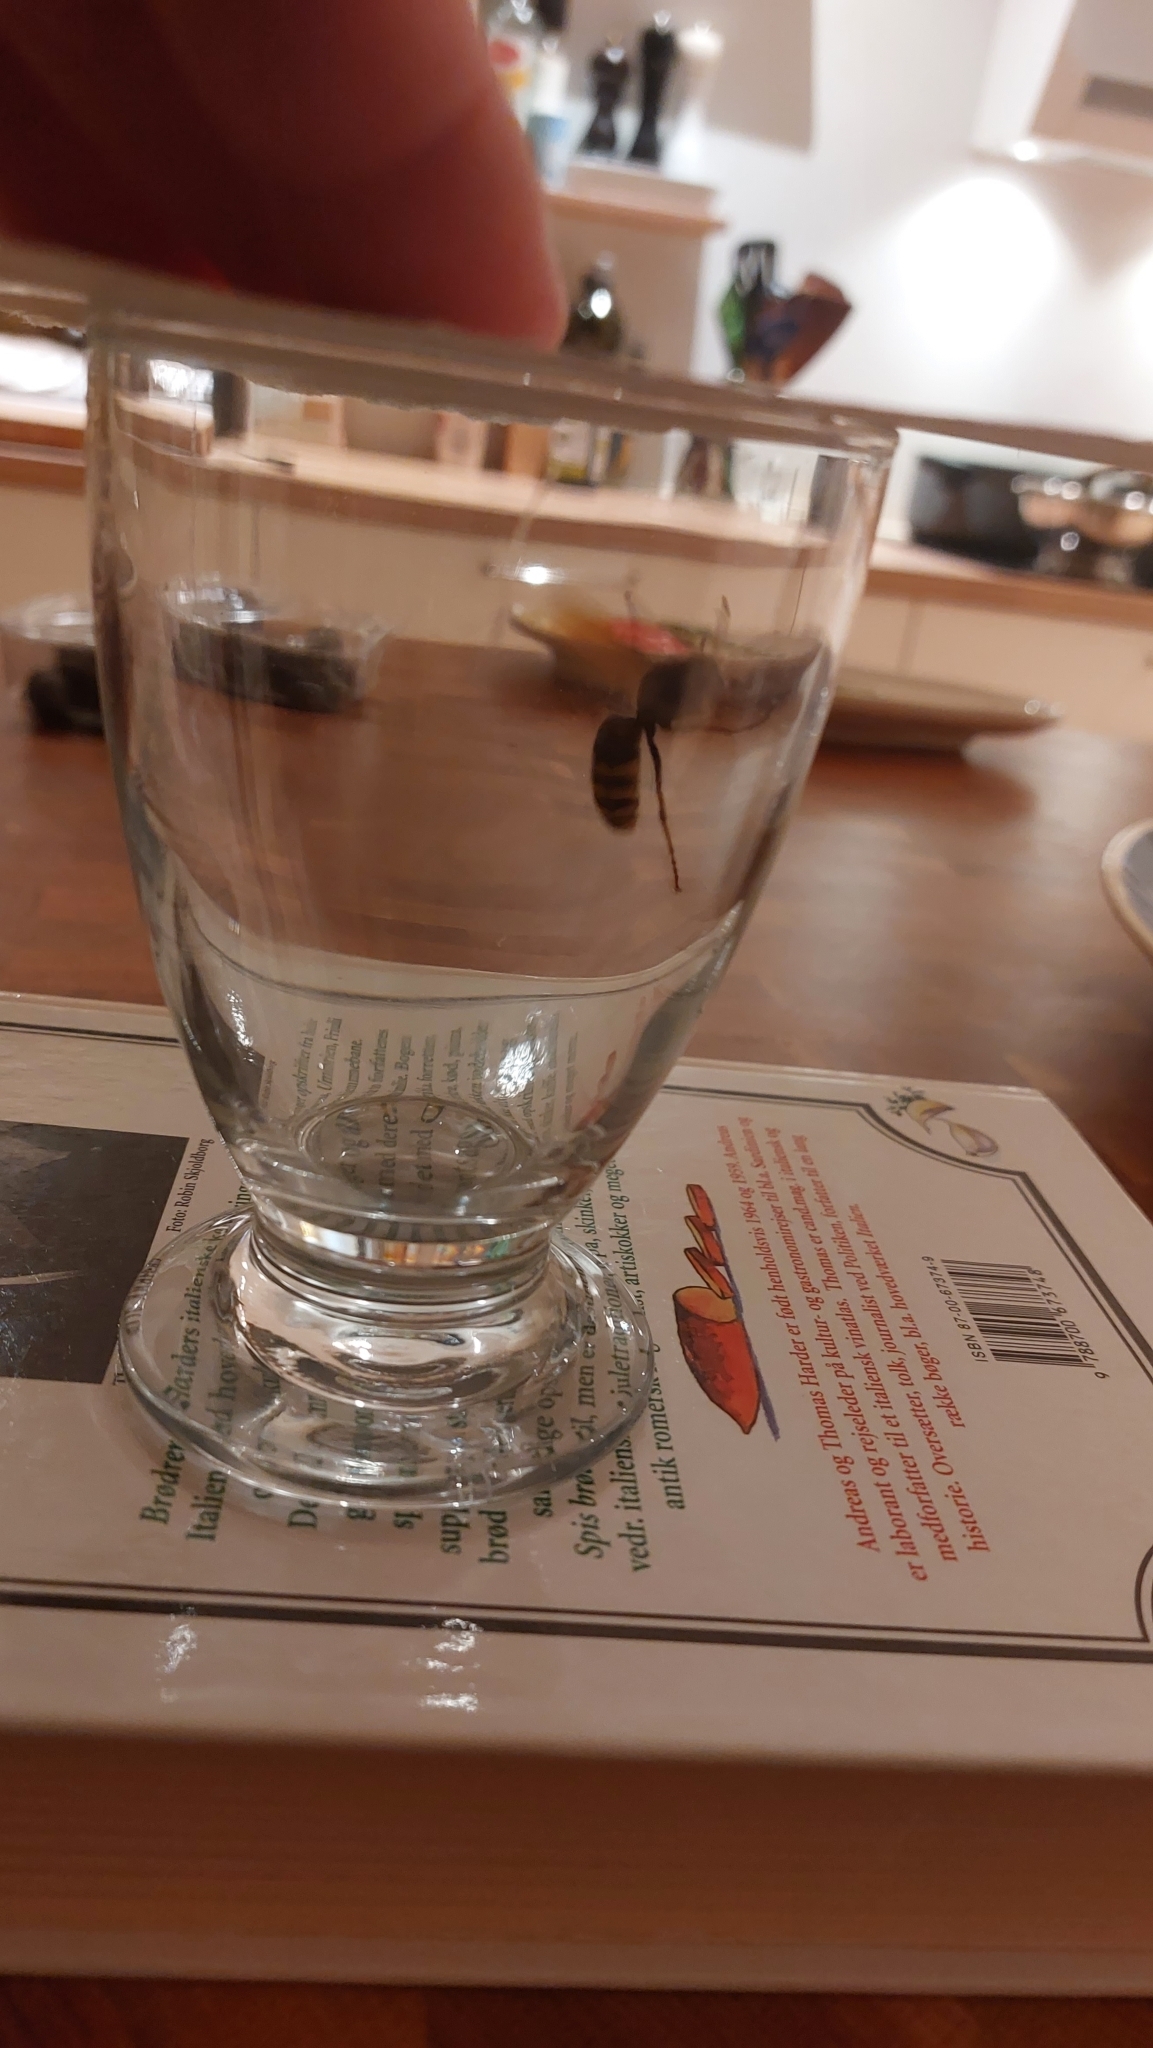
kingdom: Animalia
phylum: Arthropoda
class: Insecta
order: Hymenoptera
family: Vespidae
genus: Vespa
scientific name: Vespa crabro
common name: Hornet
